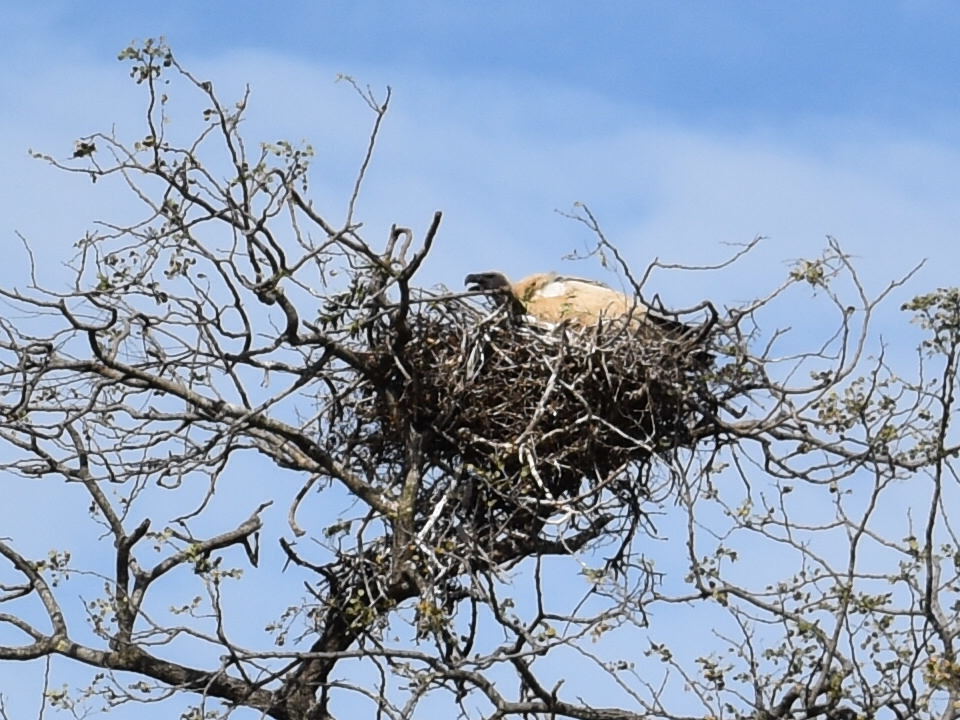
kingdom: Animalia
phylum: Chordata
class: Aves
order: Accipitriformes
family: Accipitridae
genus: Gyps
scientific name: Gyps africanus
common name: White-backed vulture
